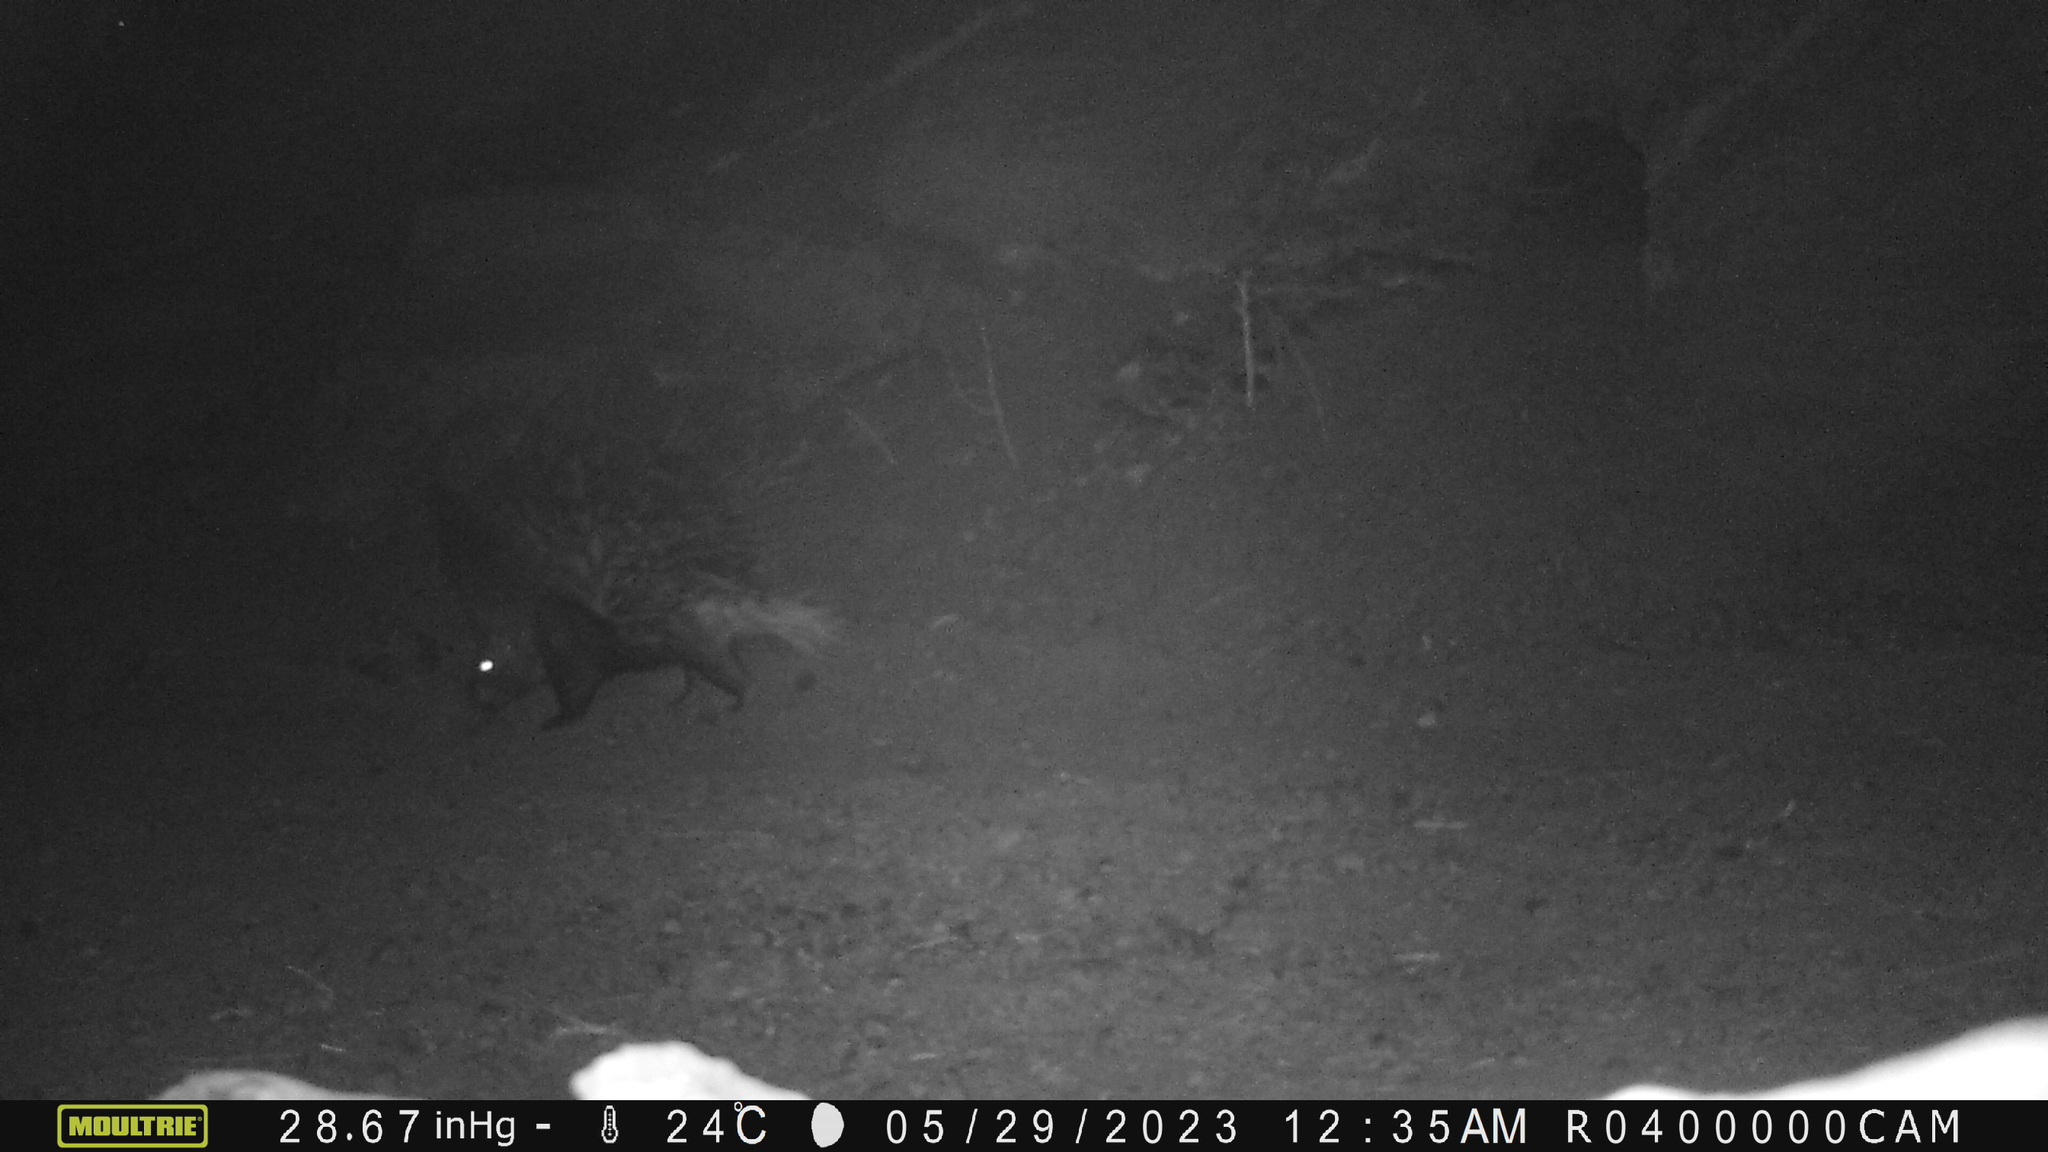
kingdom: Animalia
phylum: Chordata
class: Mammalia
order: Rodentia
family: Hystricidae
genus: Hystrix
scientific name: Hystrix indica
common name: Indian crested porcupine
